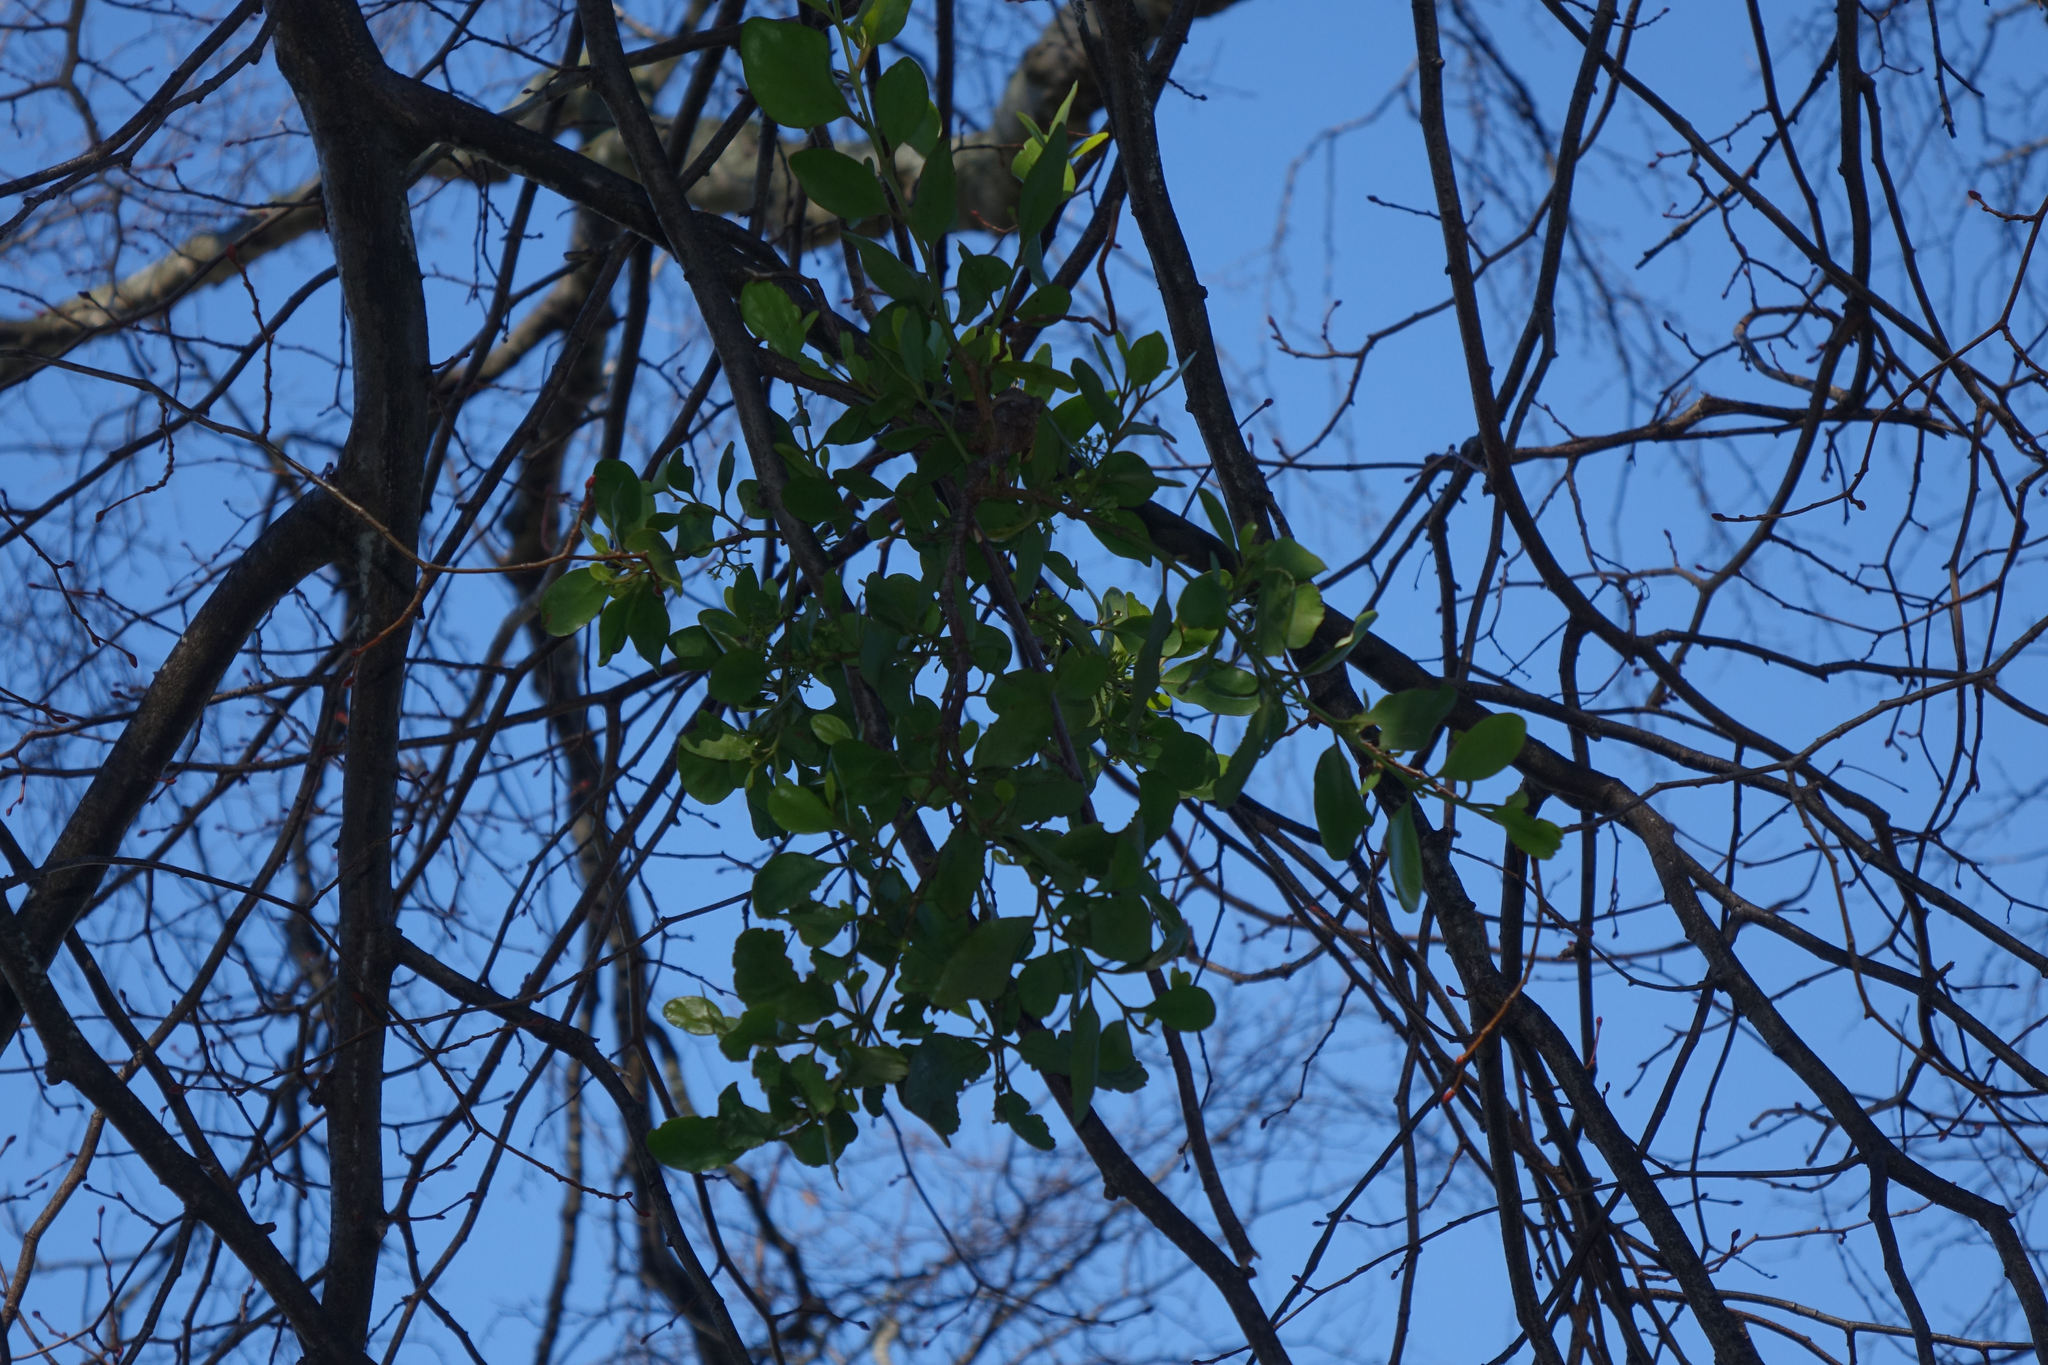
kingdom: Plantae
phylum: Tracheophyta
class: Magnoliopsida
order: Santalales
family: Loranthaceae
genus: Ileostylus
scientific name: Ileostylus micranthus
